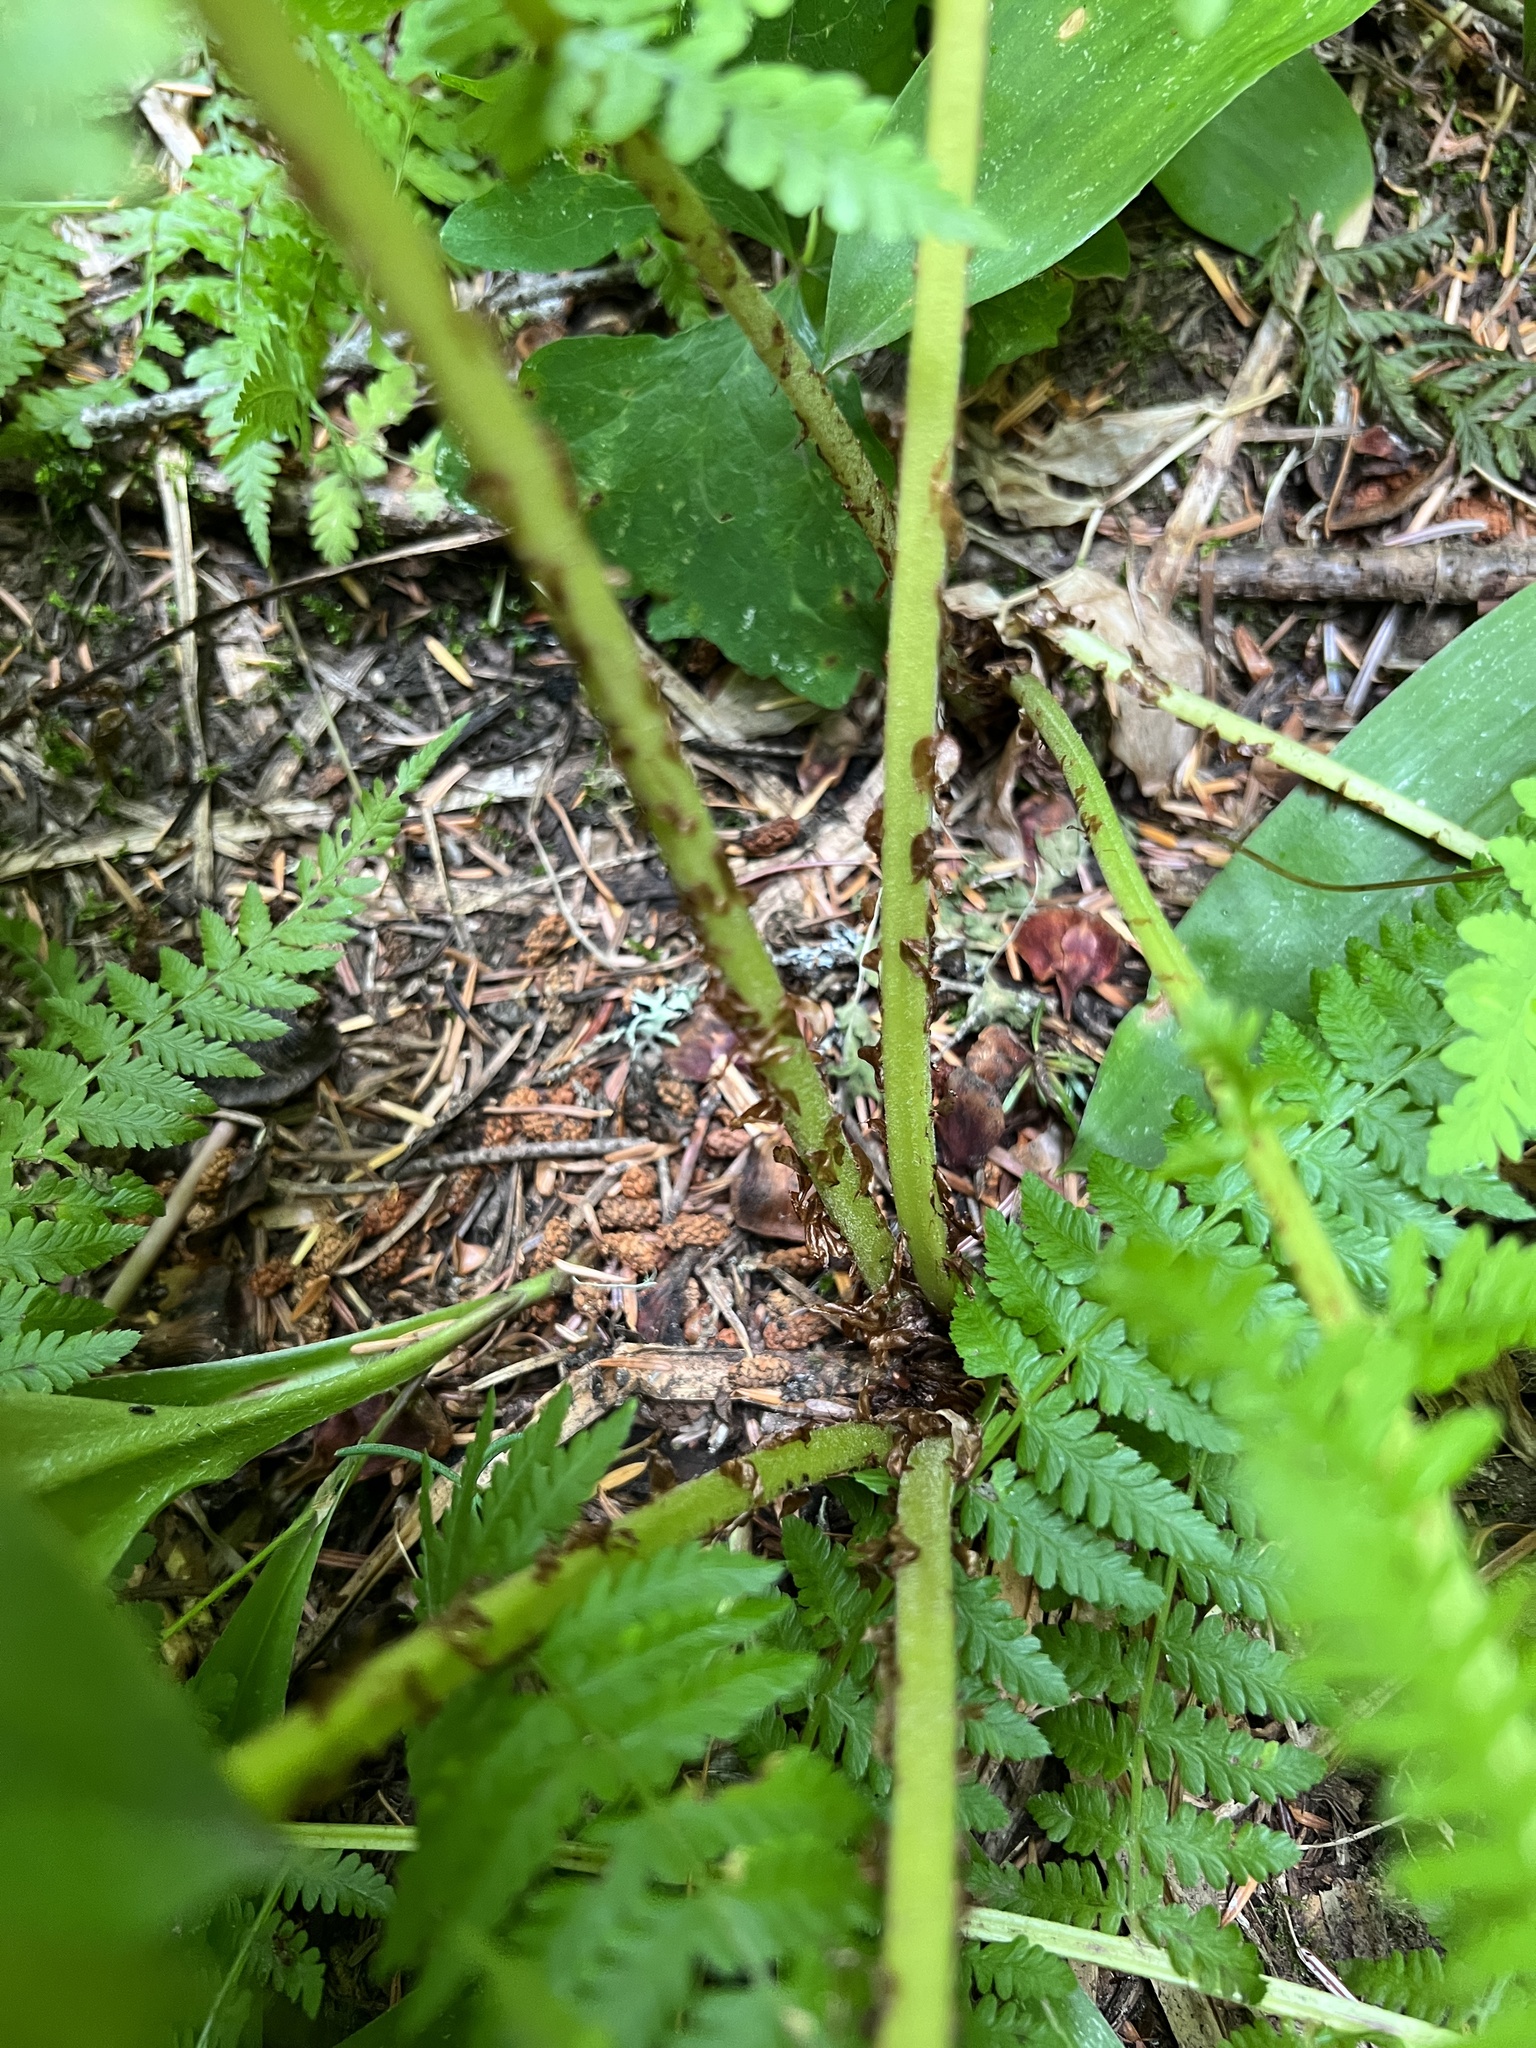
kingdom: Plantae
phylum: Tracheophyta
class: Polypodiopsida
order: Polypodiales
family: Athyriaceae
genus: Athyrium
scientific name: Athyrium filix-femina
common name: Lady fern
